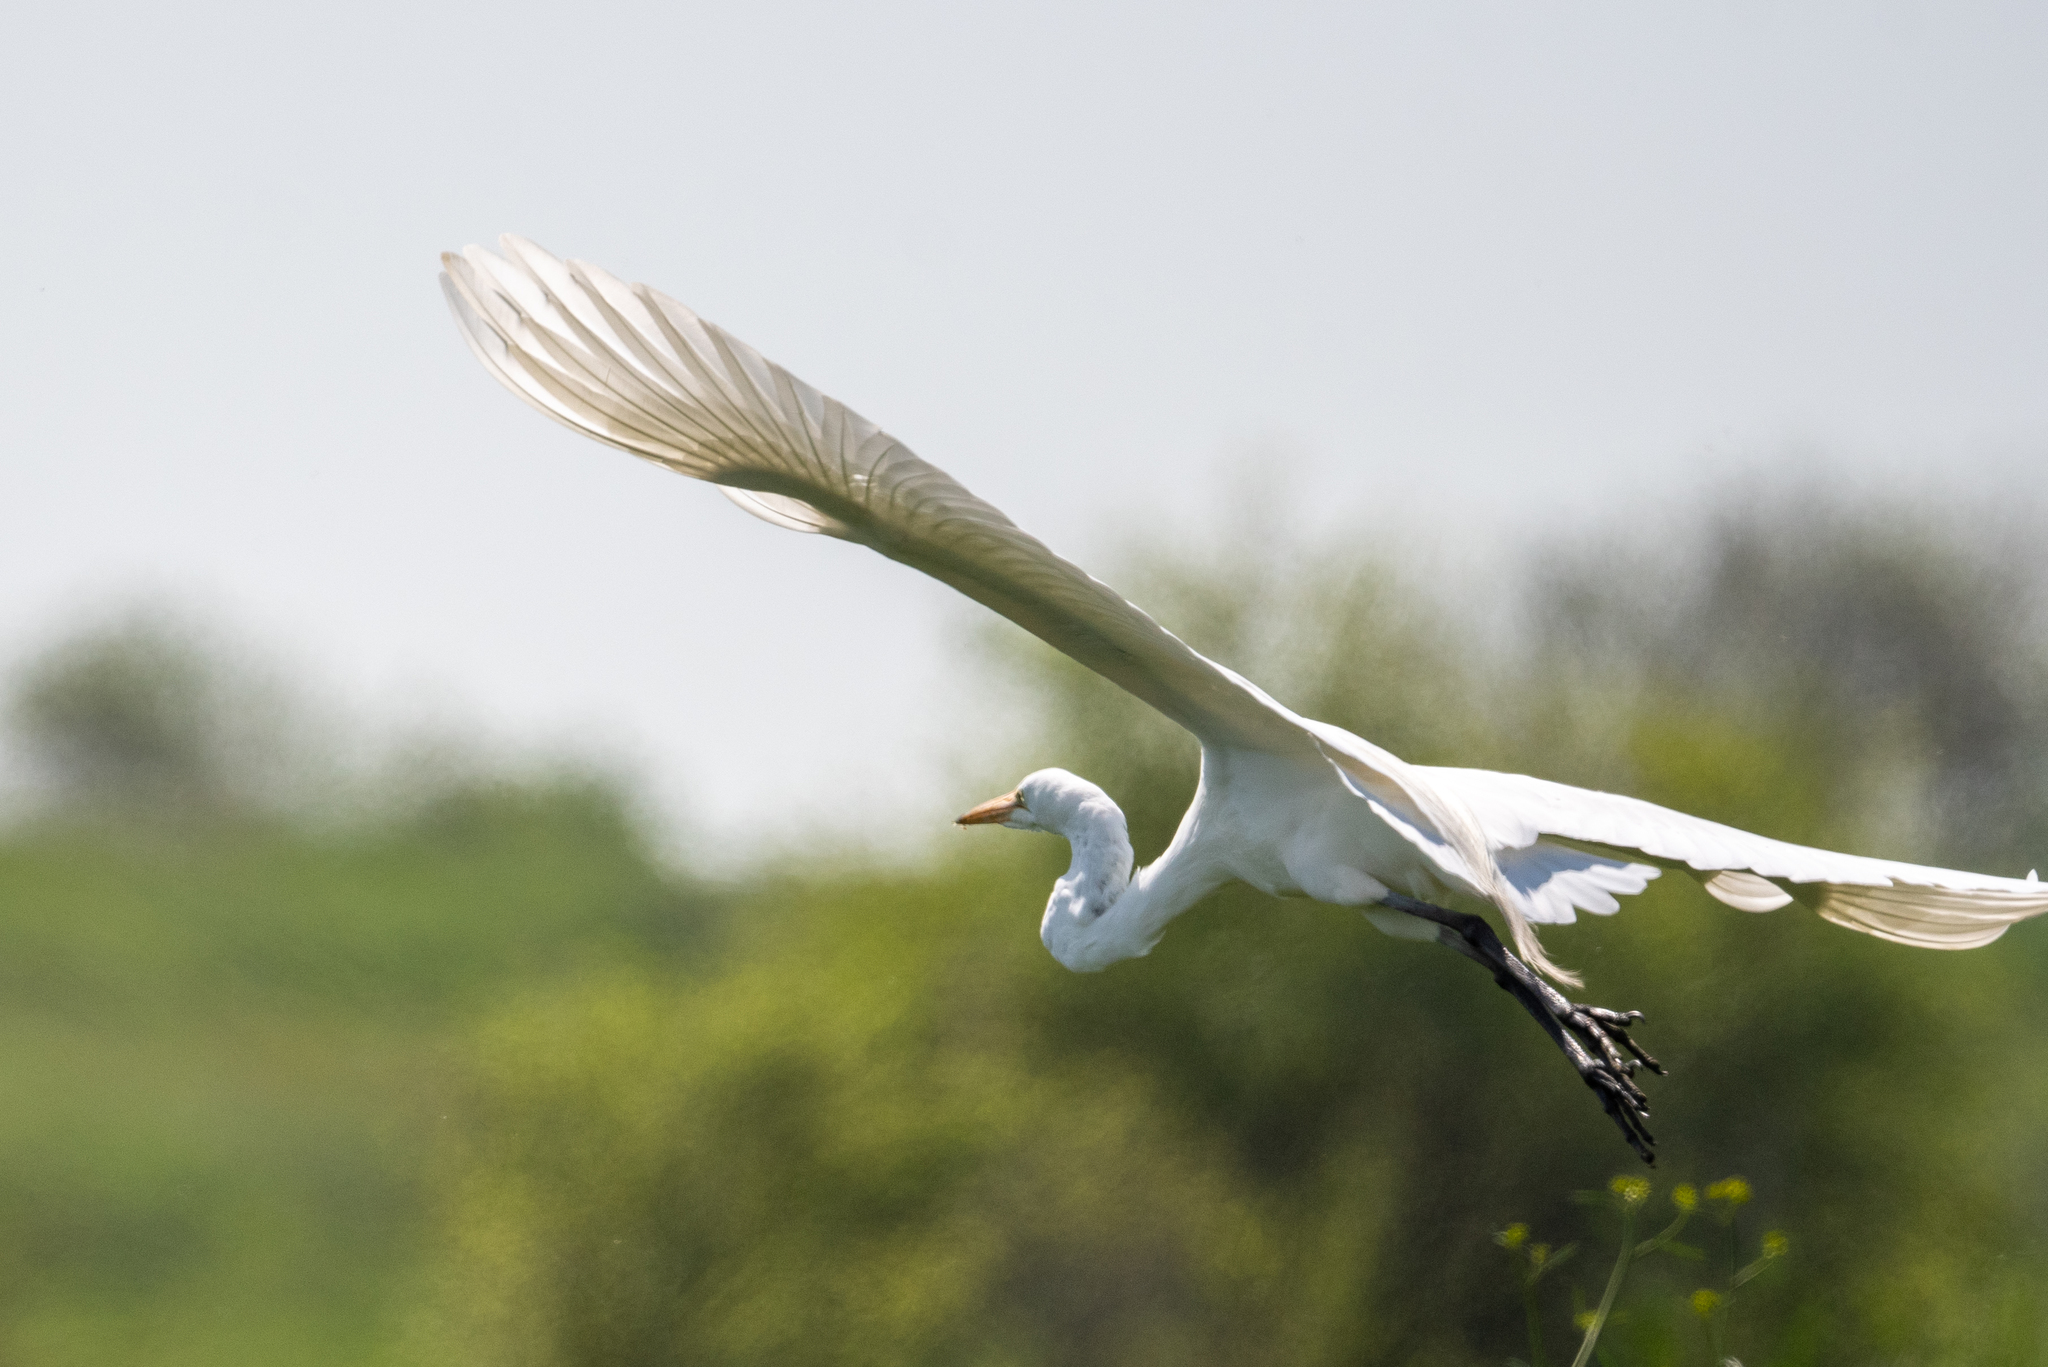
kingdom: Animalia
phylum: Chordata
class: Aves
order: Pelecaniformes
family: Ardeidae
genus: Ardea
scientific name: Ardea alba
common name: Great egret
